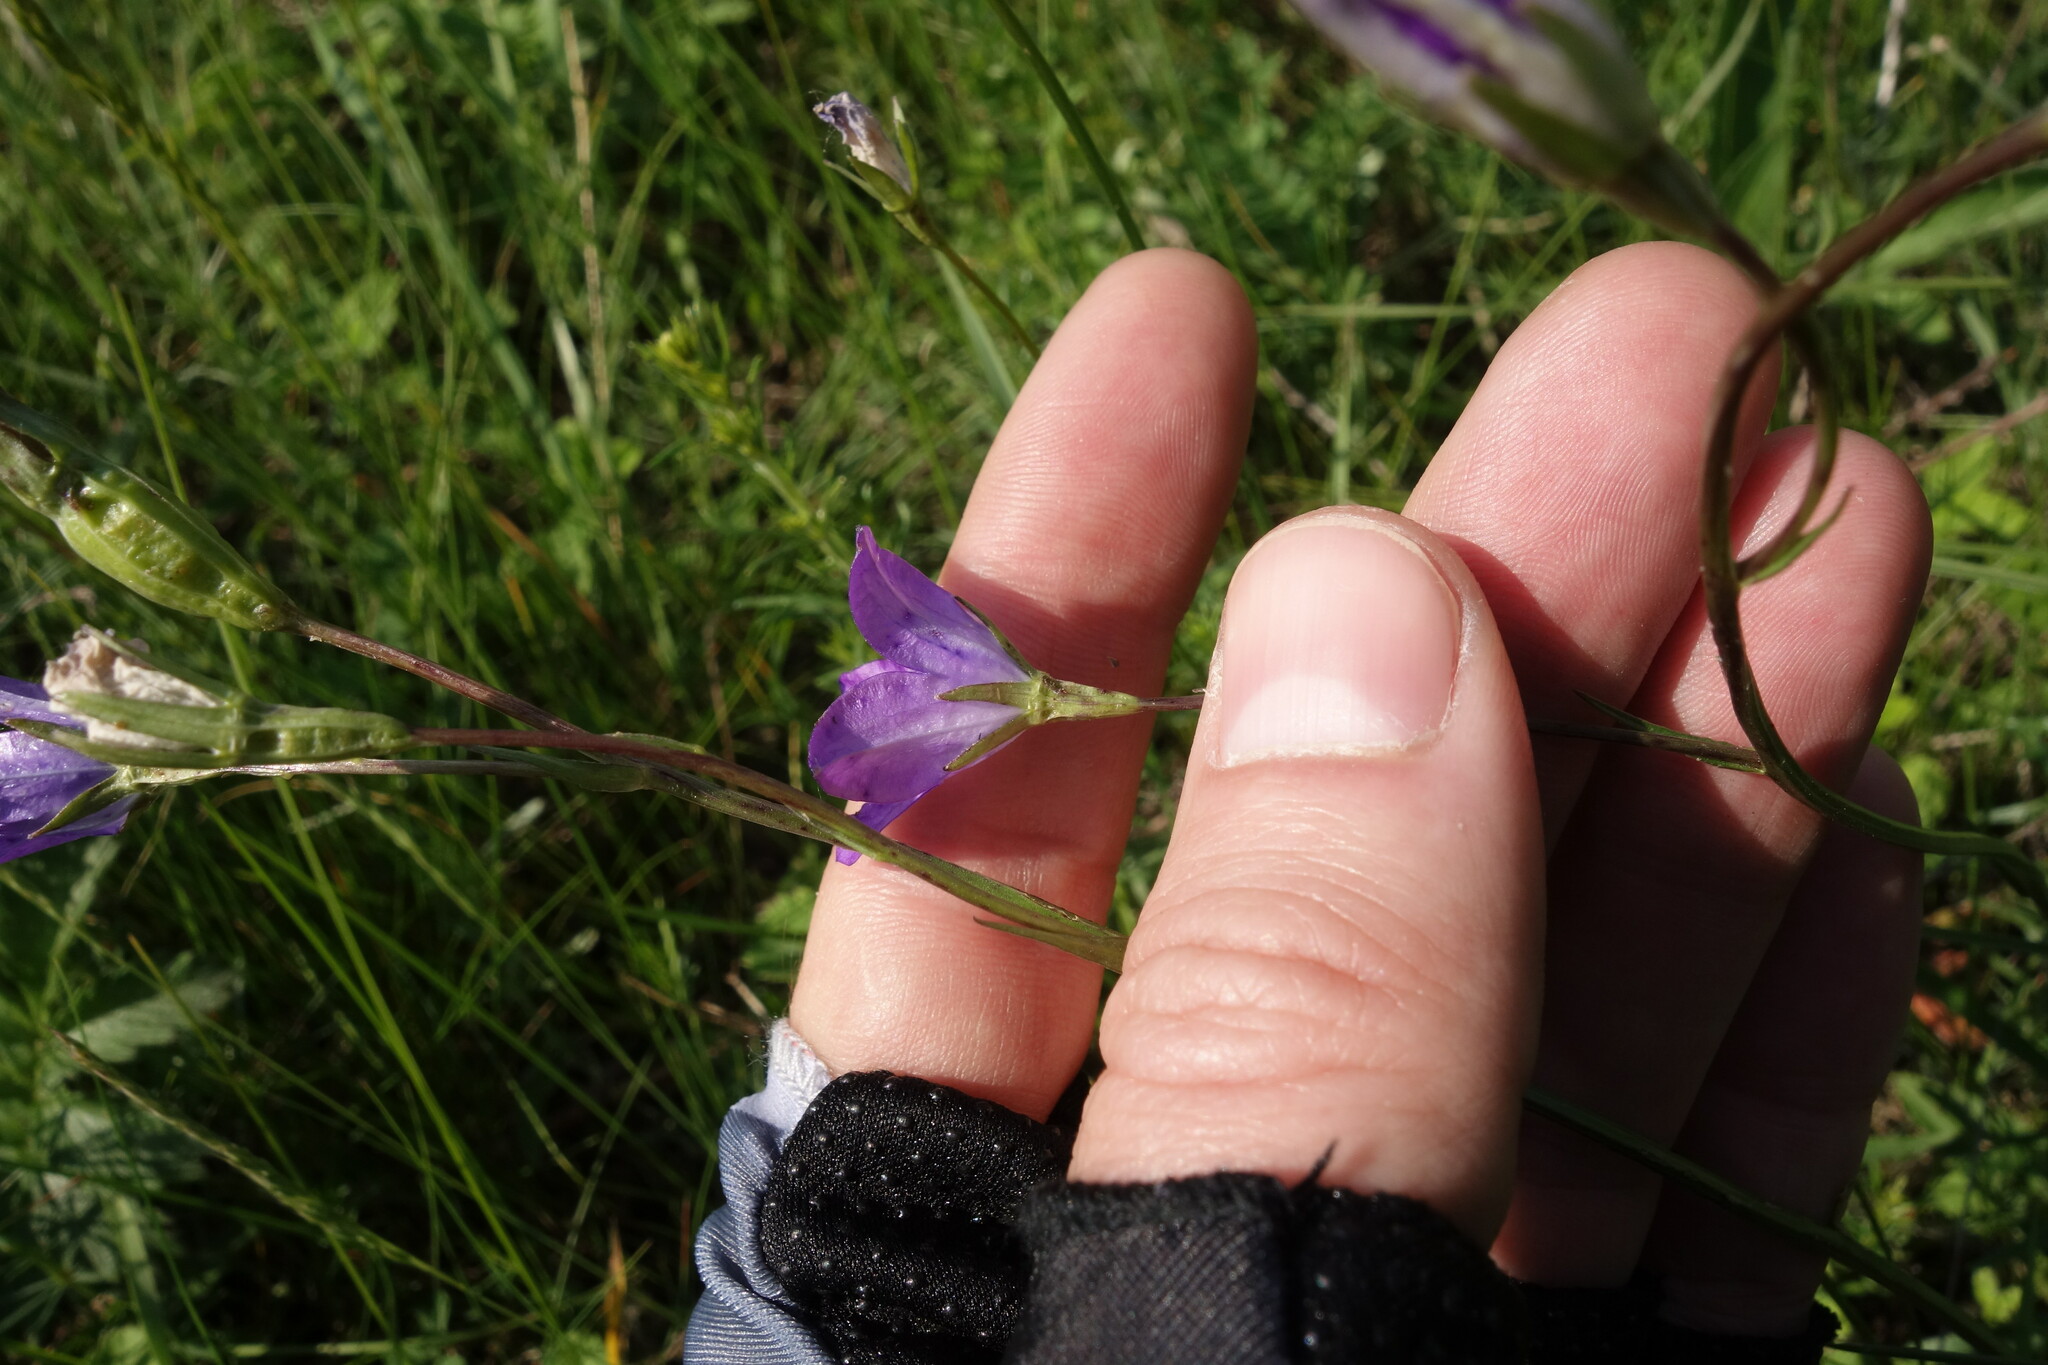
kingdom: Plantae
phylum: Tracheophyta
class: Magnoliopsida
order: Asterales
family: Campanulaceae
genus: Campanula
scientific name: Campanula stevenii
